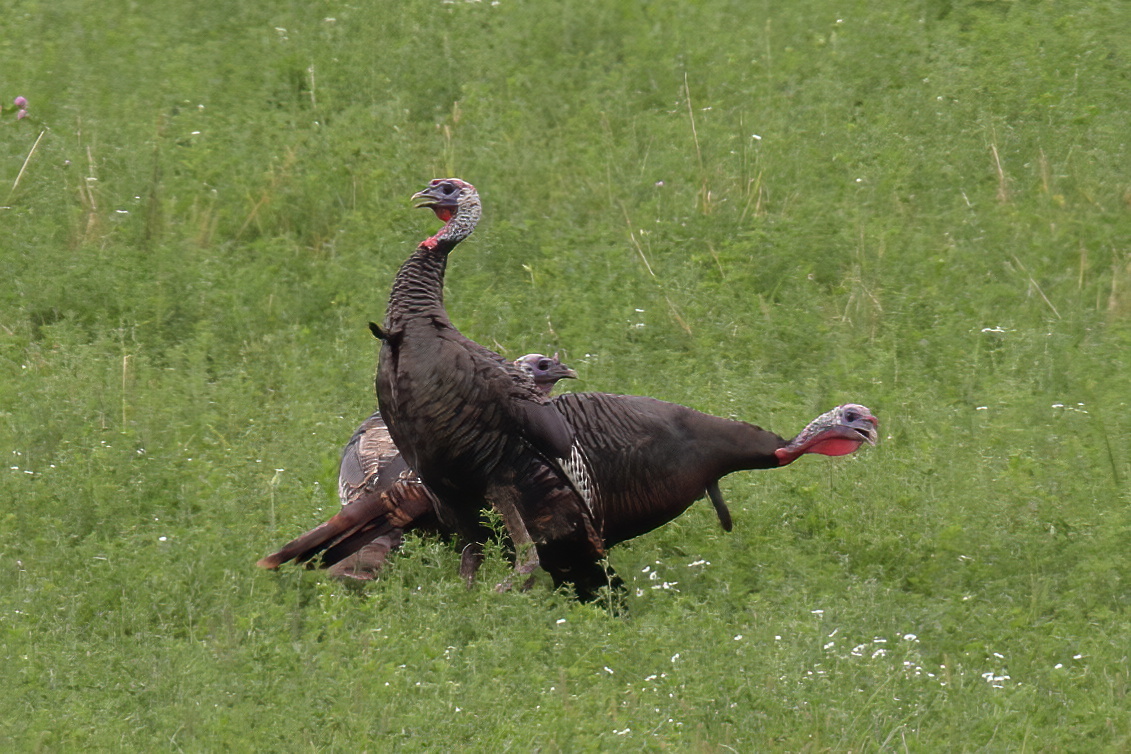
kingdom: Animalia
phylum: Chordata
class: Aves
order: Galliformes
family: Phasianidae
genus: Meleagris
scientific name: Meleagris gallopavo
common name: Wild turkey
